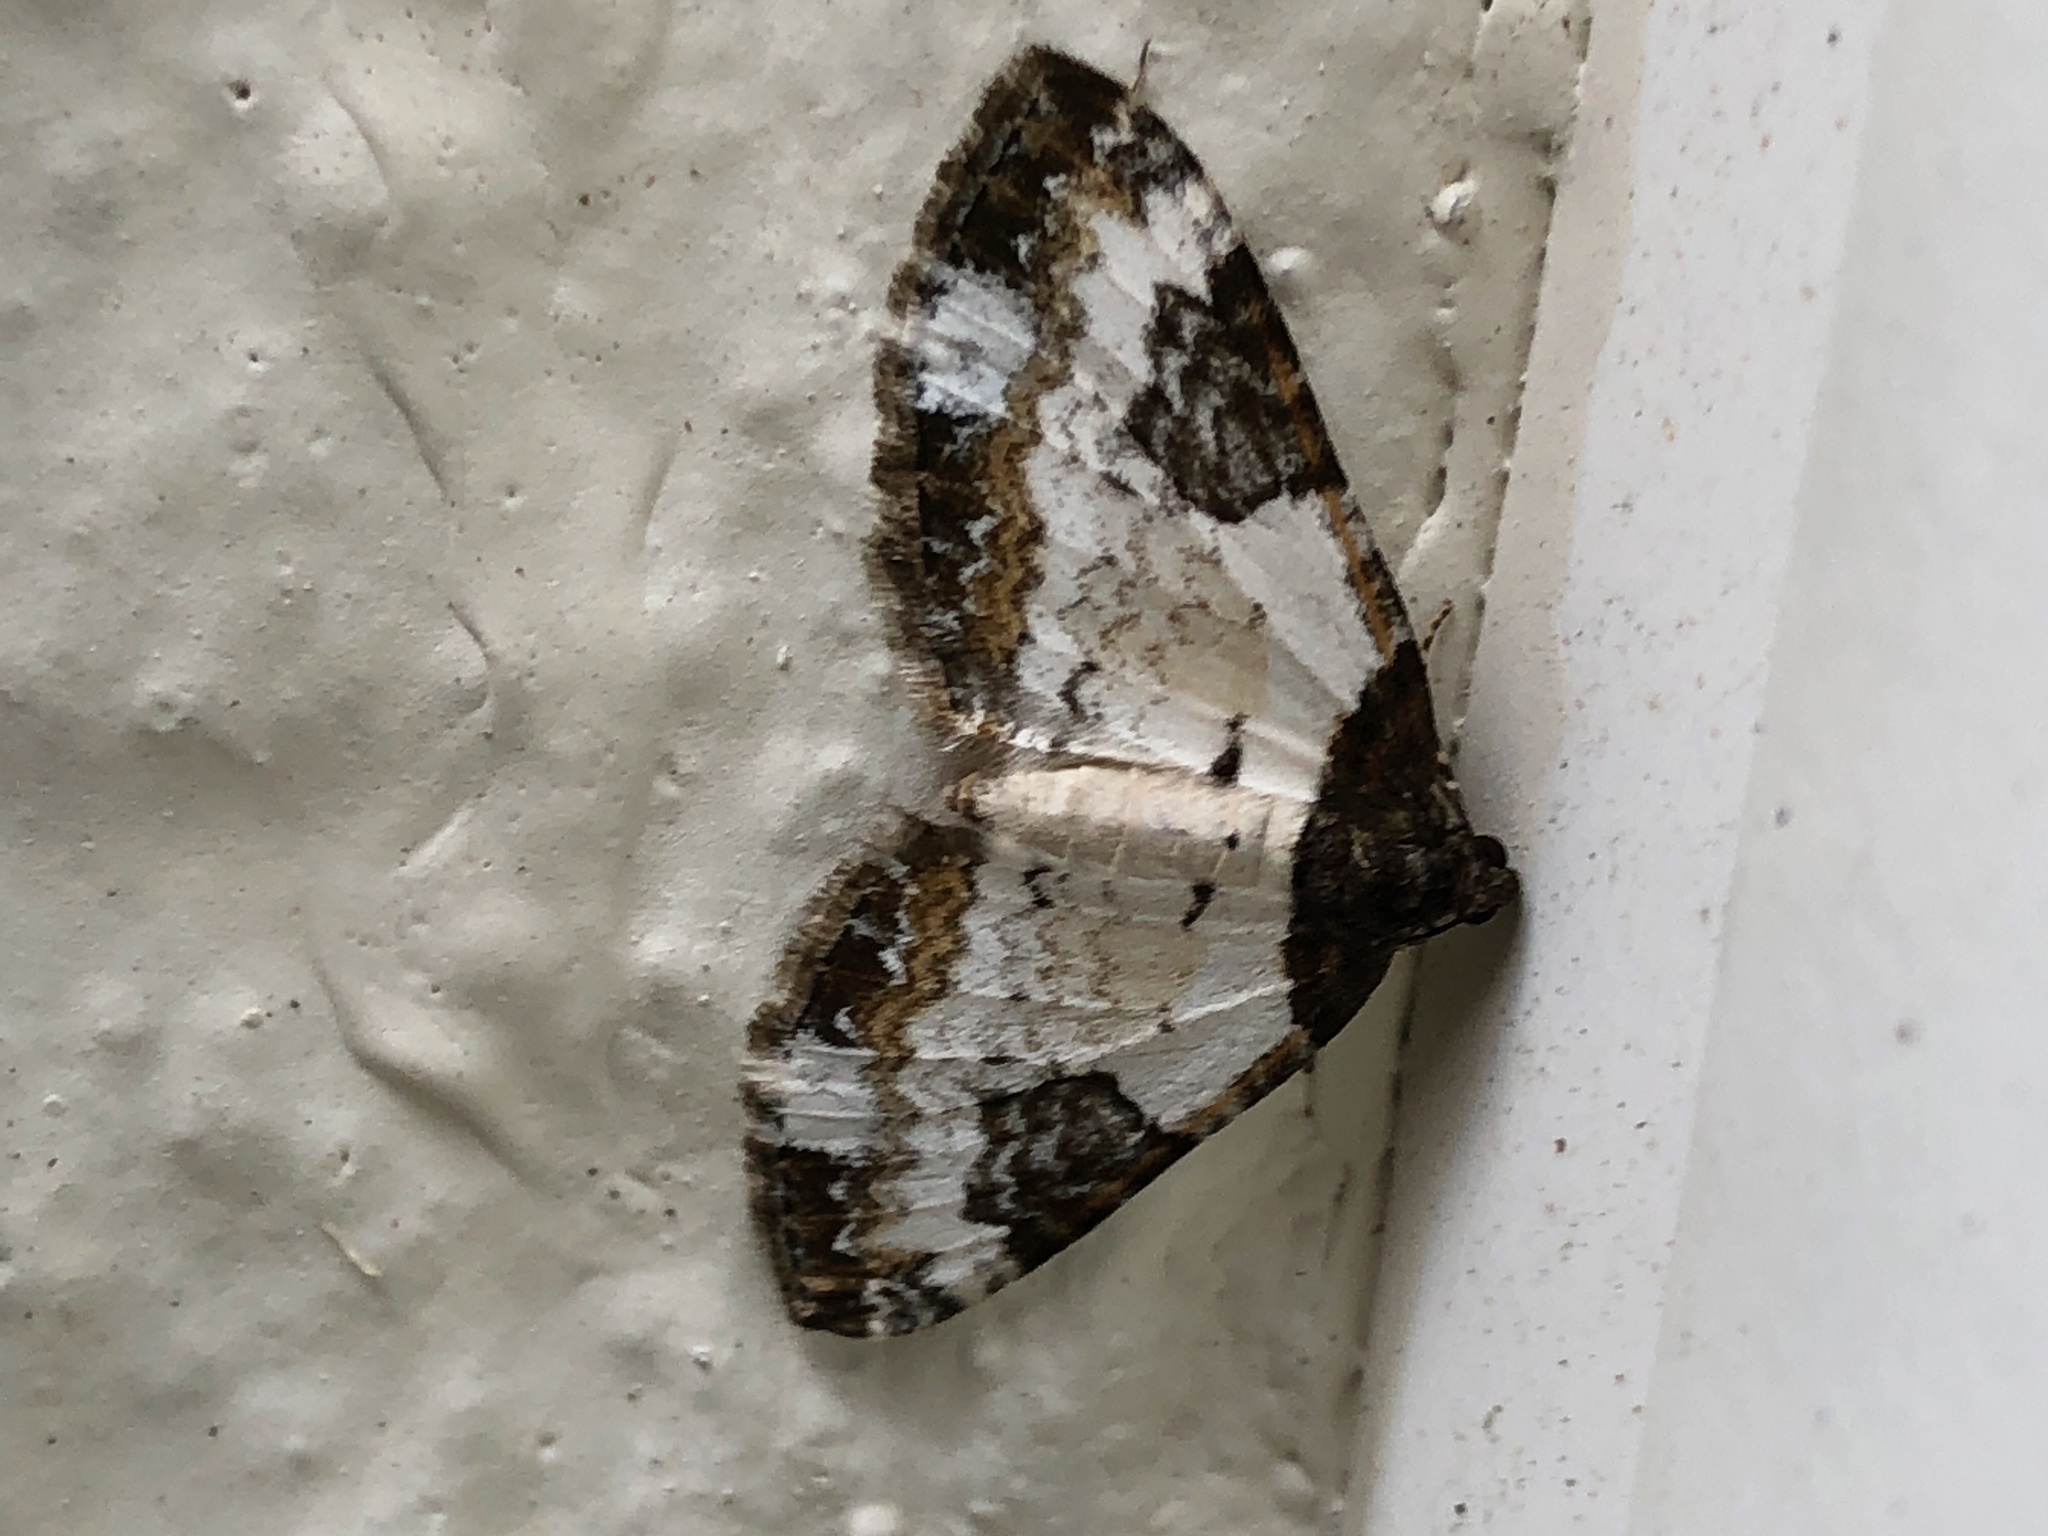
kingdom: Animalia
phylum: Arthropoda
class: Insecta
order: Lepidoptera
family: Geometridae
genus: Melanthia
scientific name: Melanthia procellata
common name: Pretty chalk carpet
